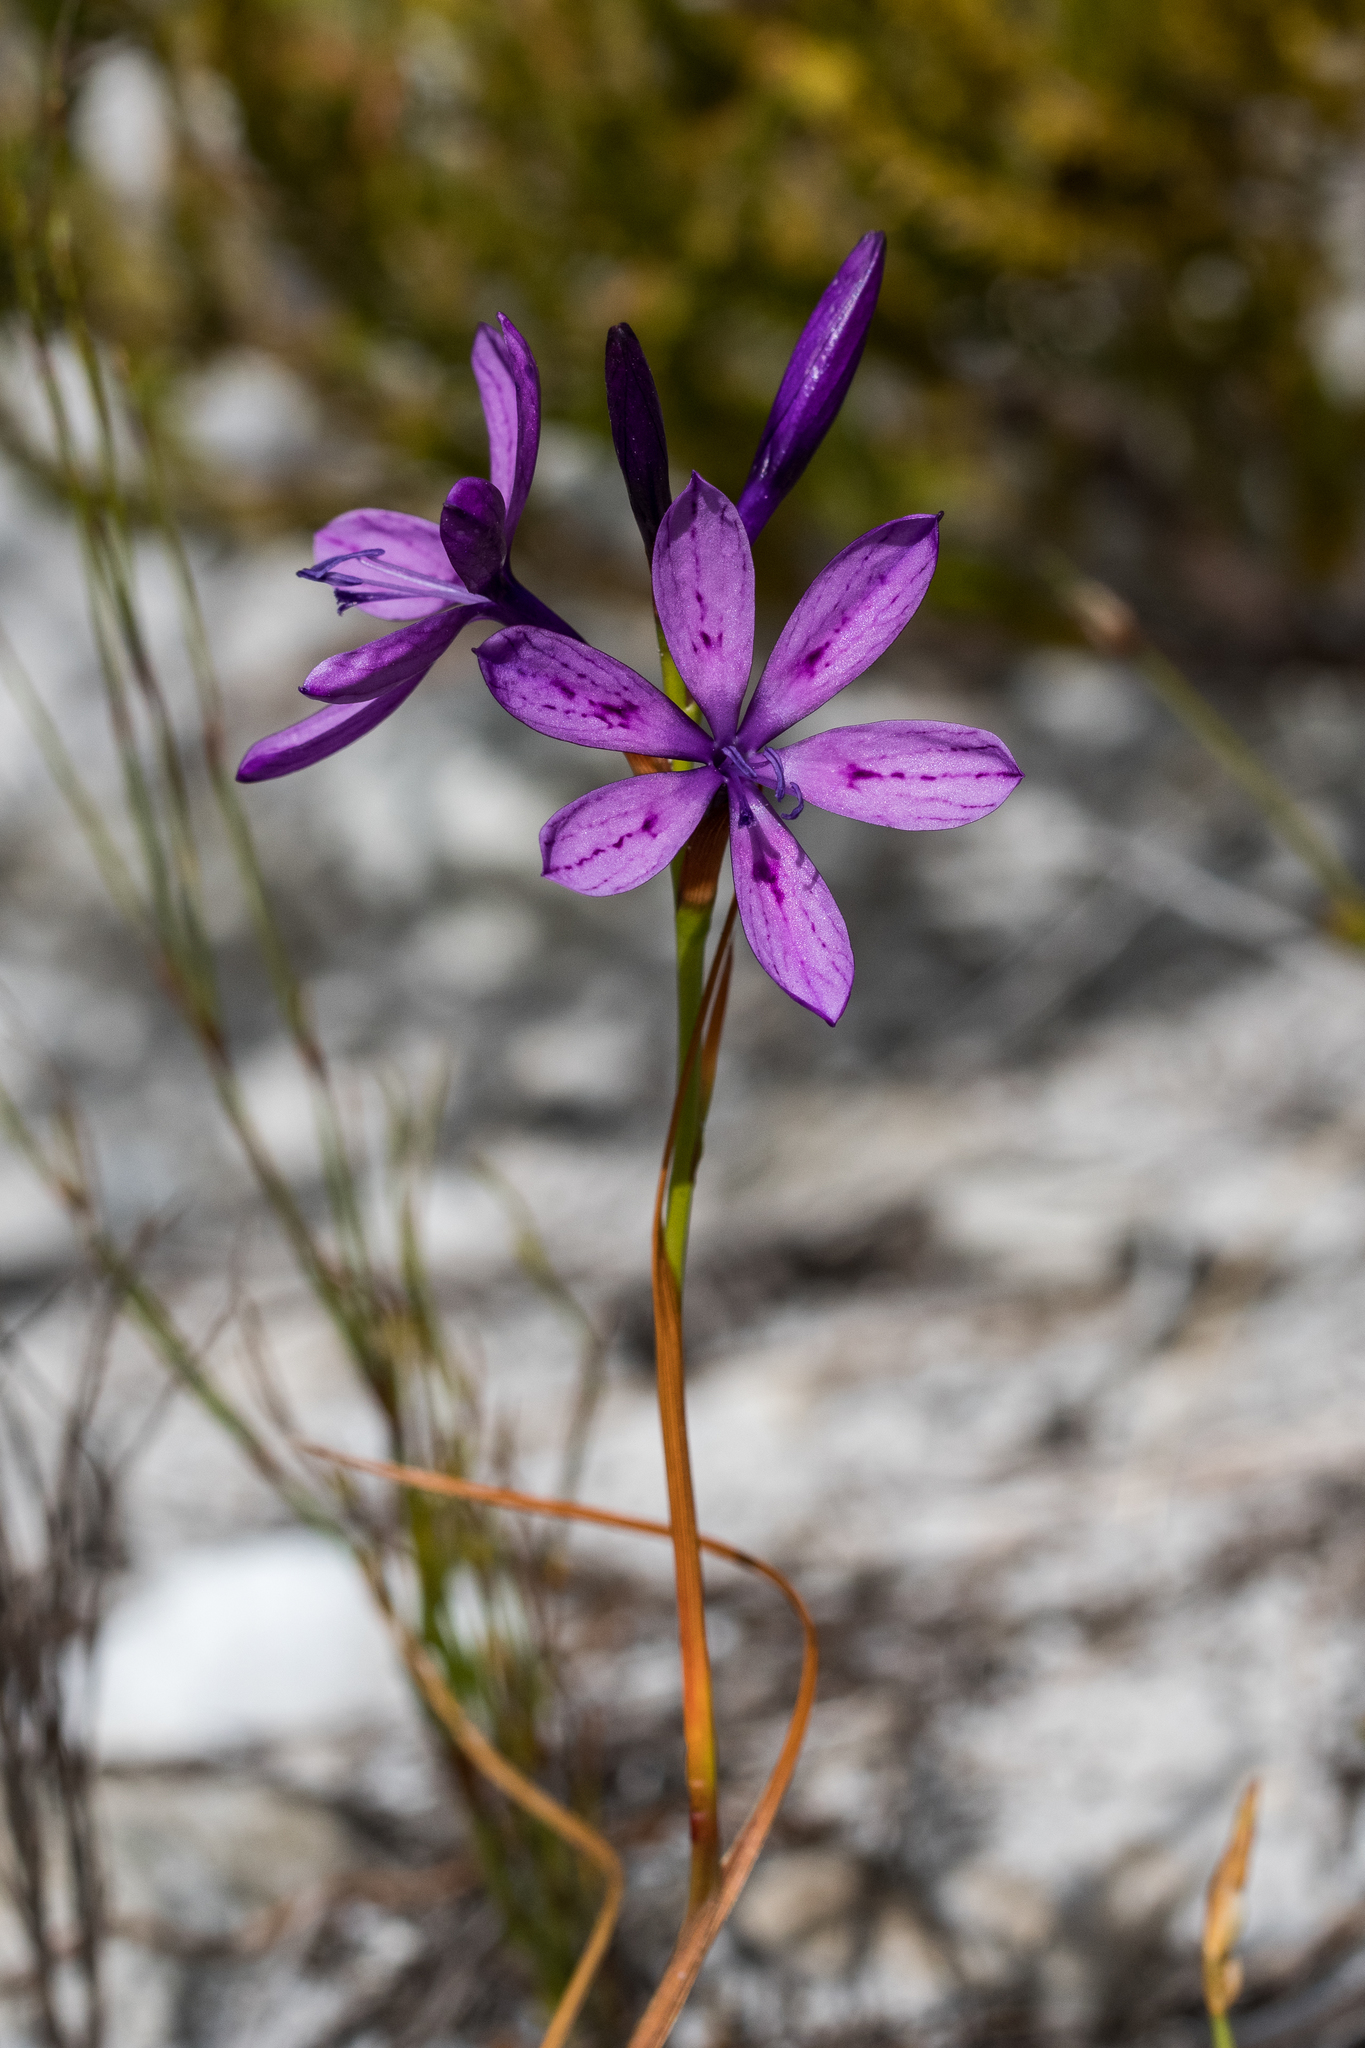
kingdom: Plantae
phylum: Tracheophyta
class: Liliopsida
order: Asparagales
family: Iridaceae
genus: Thereianthus
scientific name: Thereianthus bracteolatus
